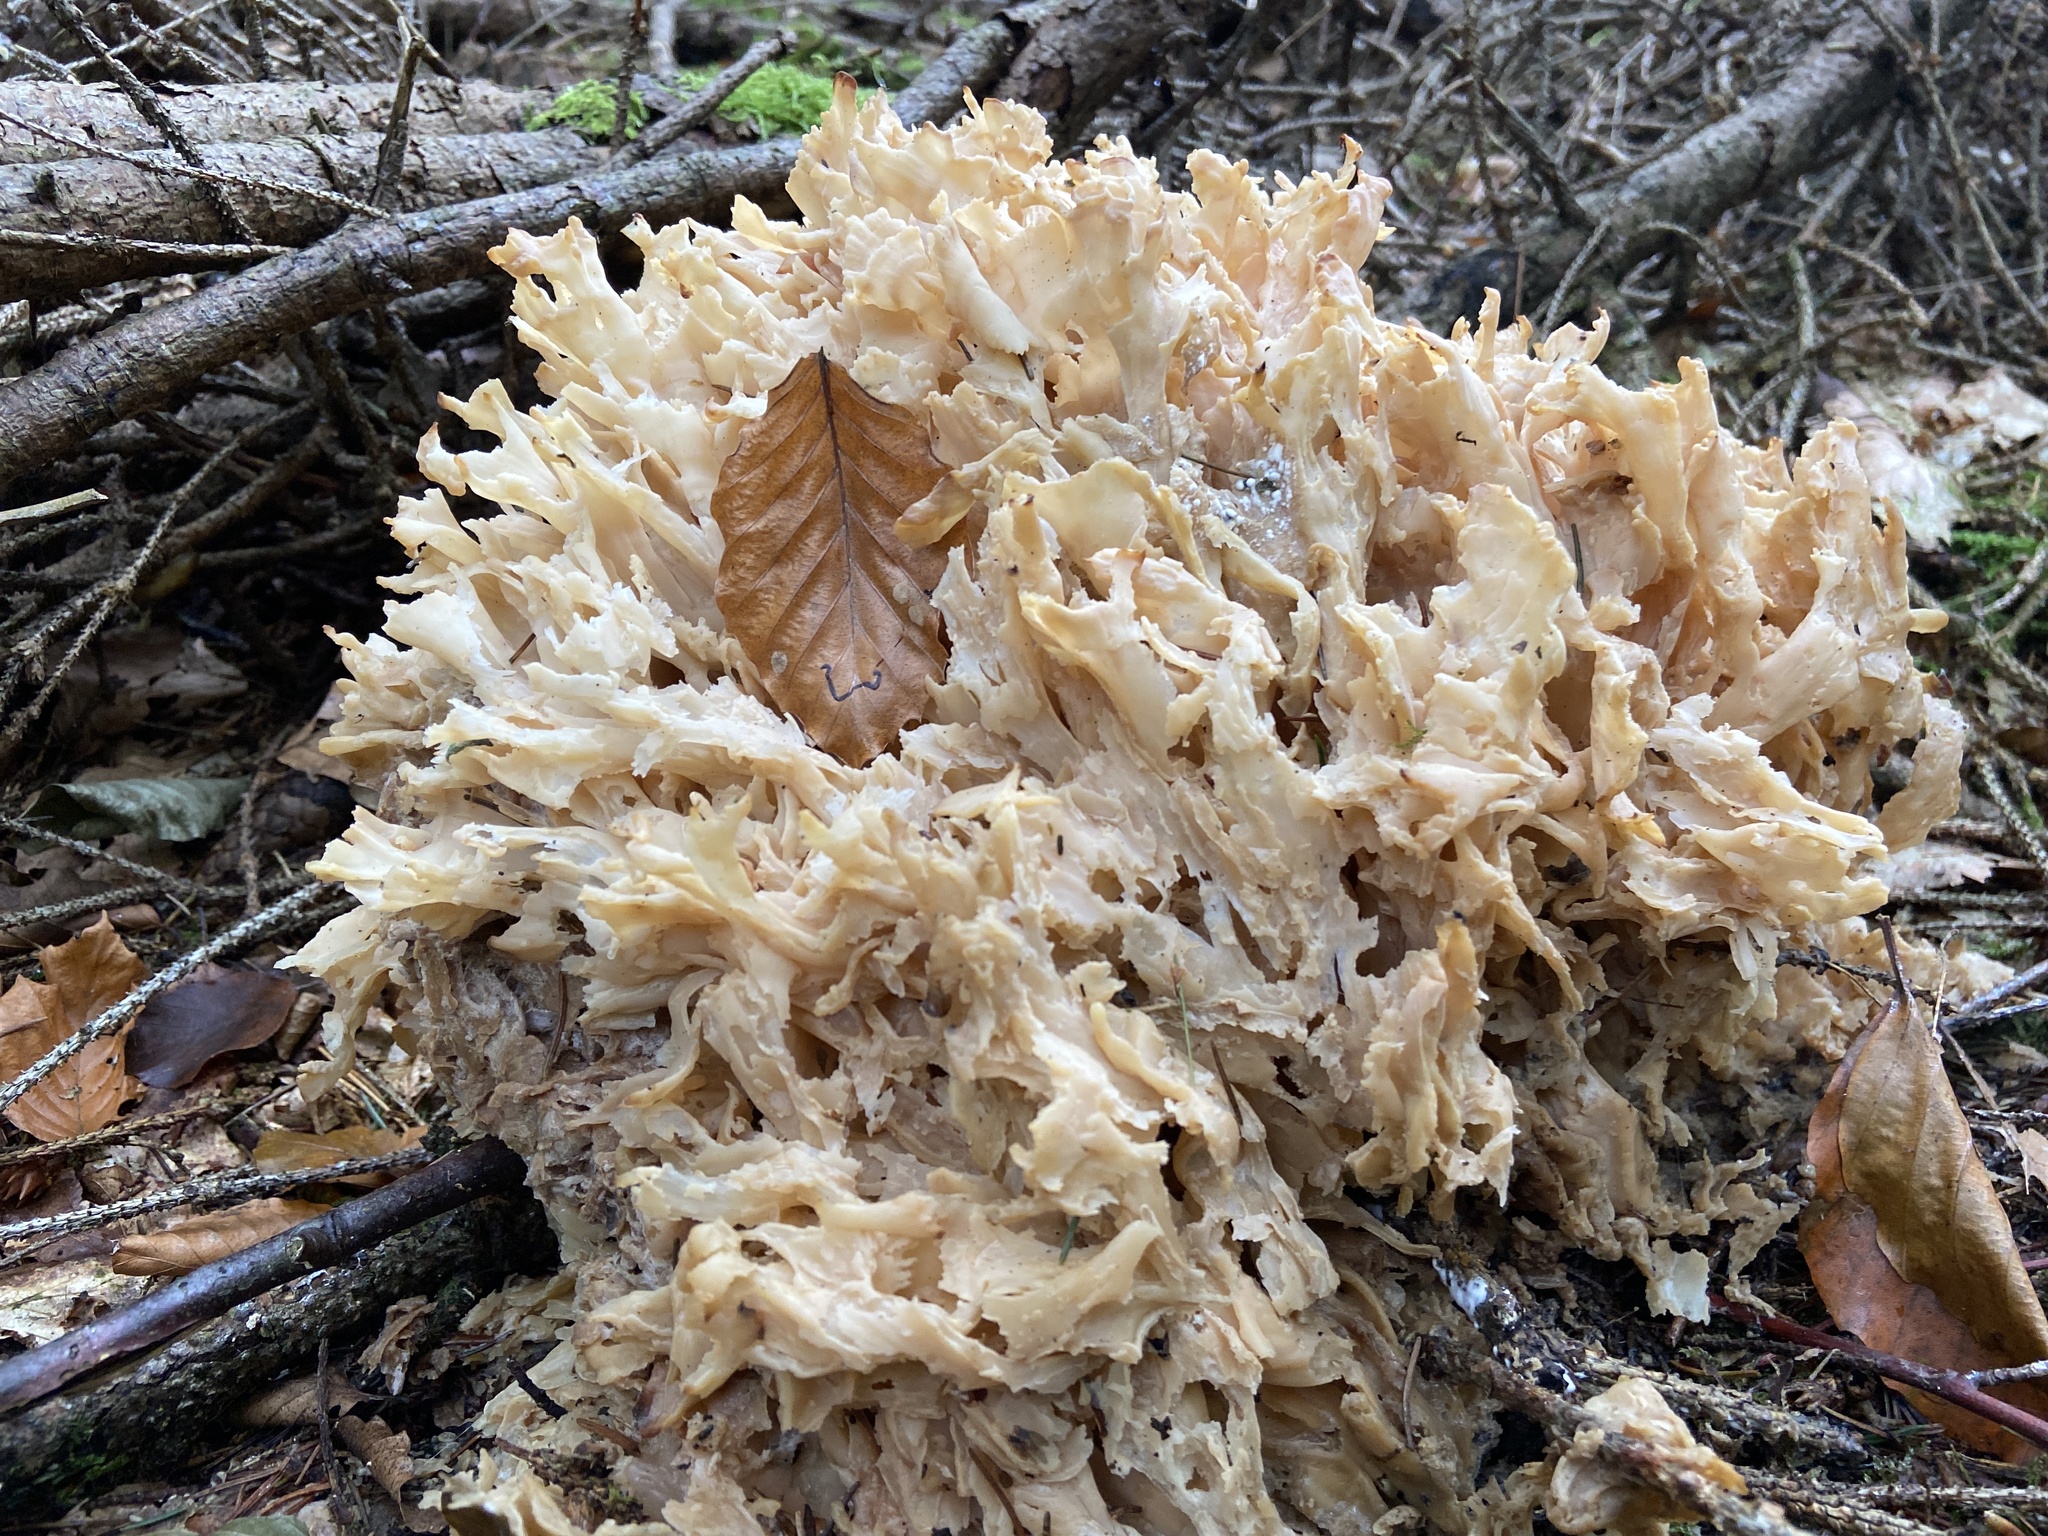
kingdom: Fungi
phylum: Basidiomycota
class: Agaricomycetes
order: Polyporales
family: Sparassidaceae
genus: Sparassis
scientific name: Sparassis crispa
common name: Brain fungus
